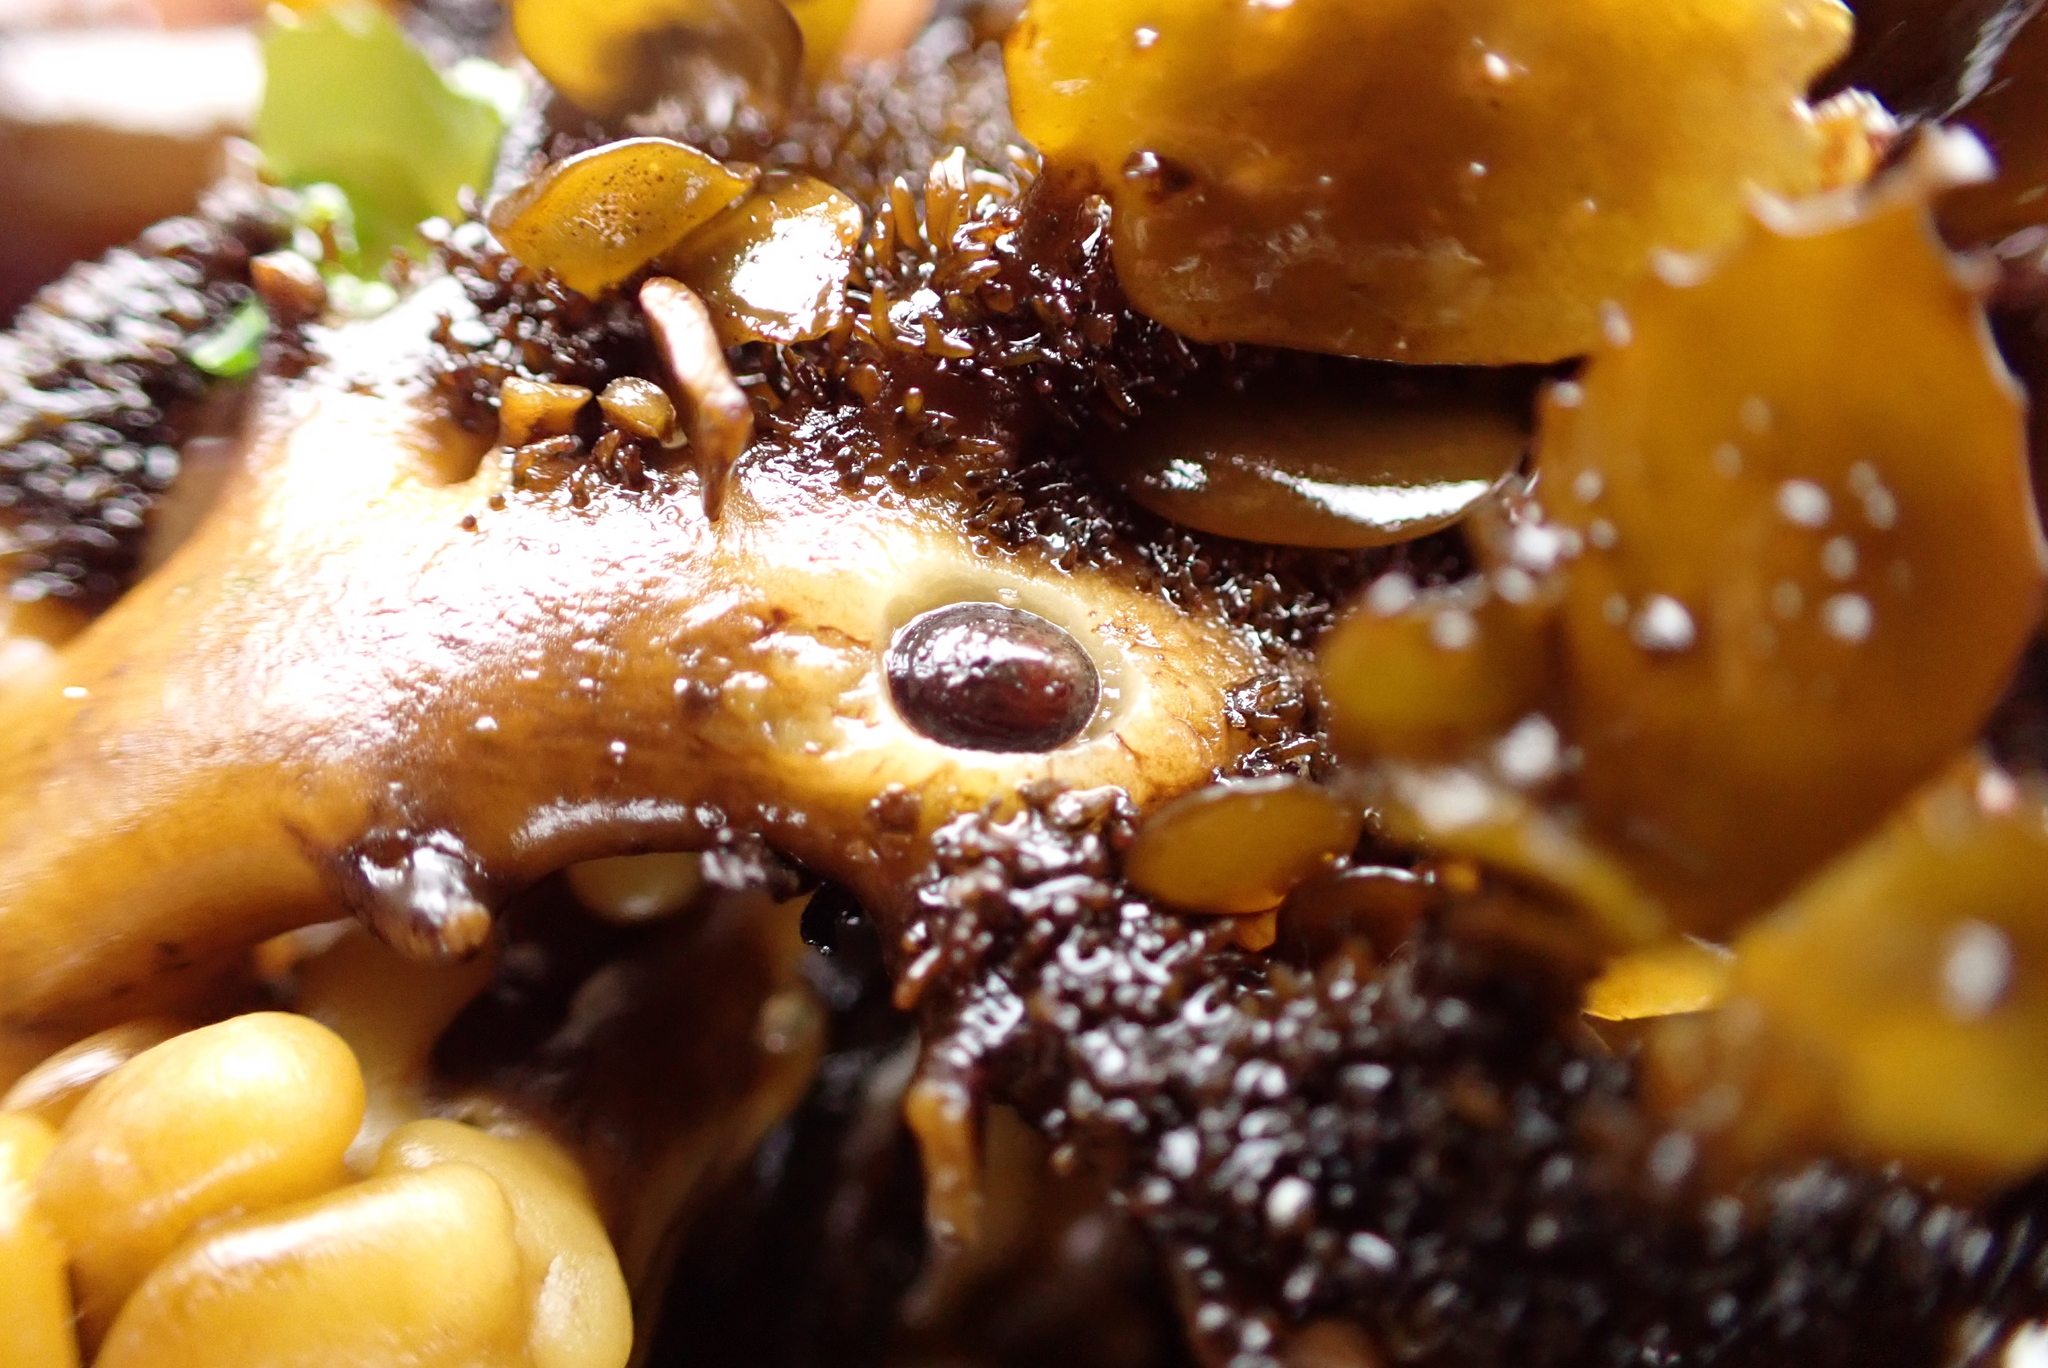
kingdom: Animalia
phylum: Mollusca
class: Gastropoda
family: Lottiidae
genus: Discurria
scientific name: Discurria insessa
